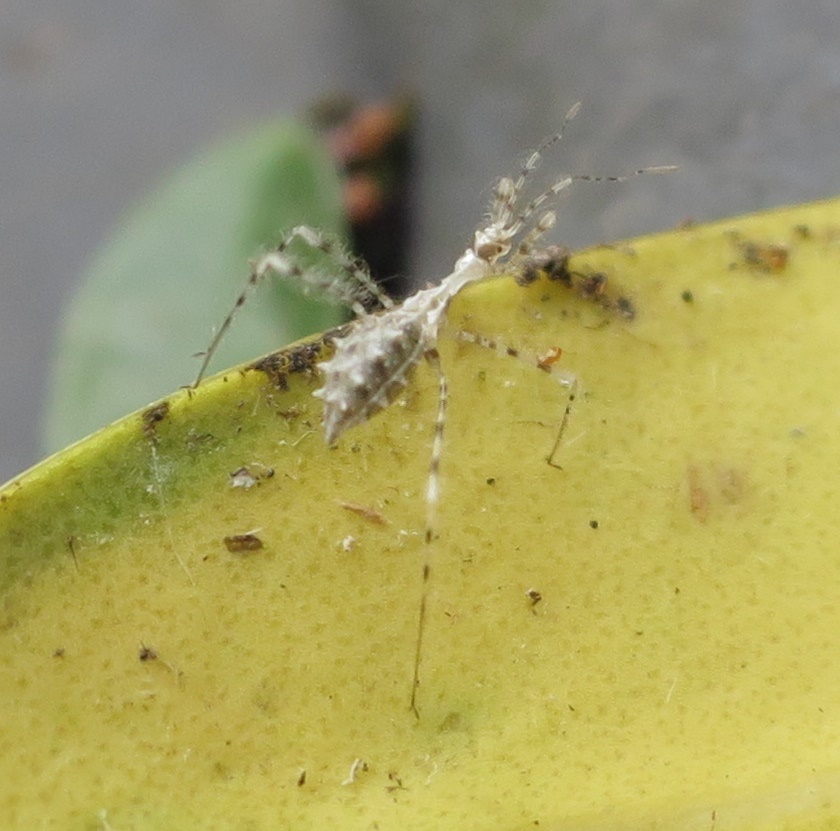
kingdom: Animalia
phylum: Arthropoda
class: Insecta
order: Hemiptera
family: Reduviidae
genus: Stenolemus
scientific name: Stenolemus fraterculus
